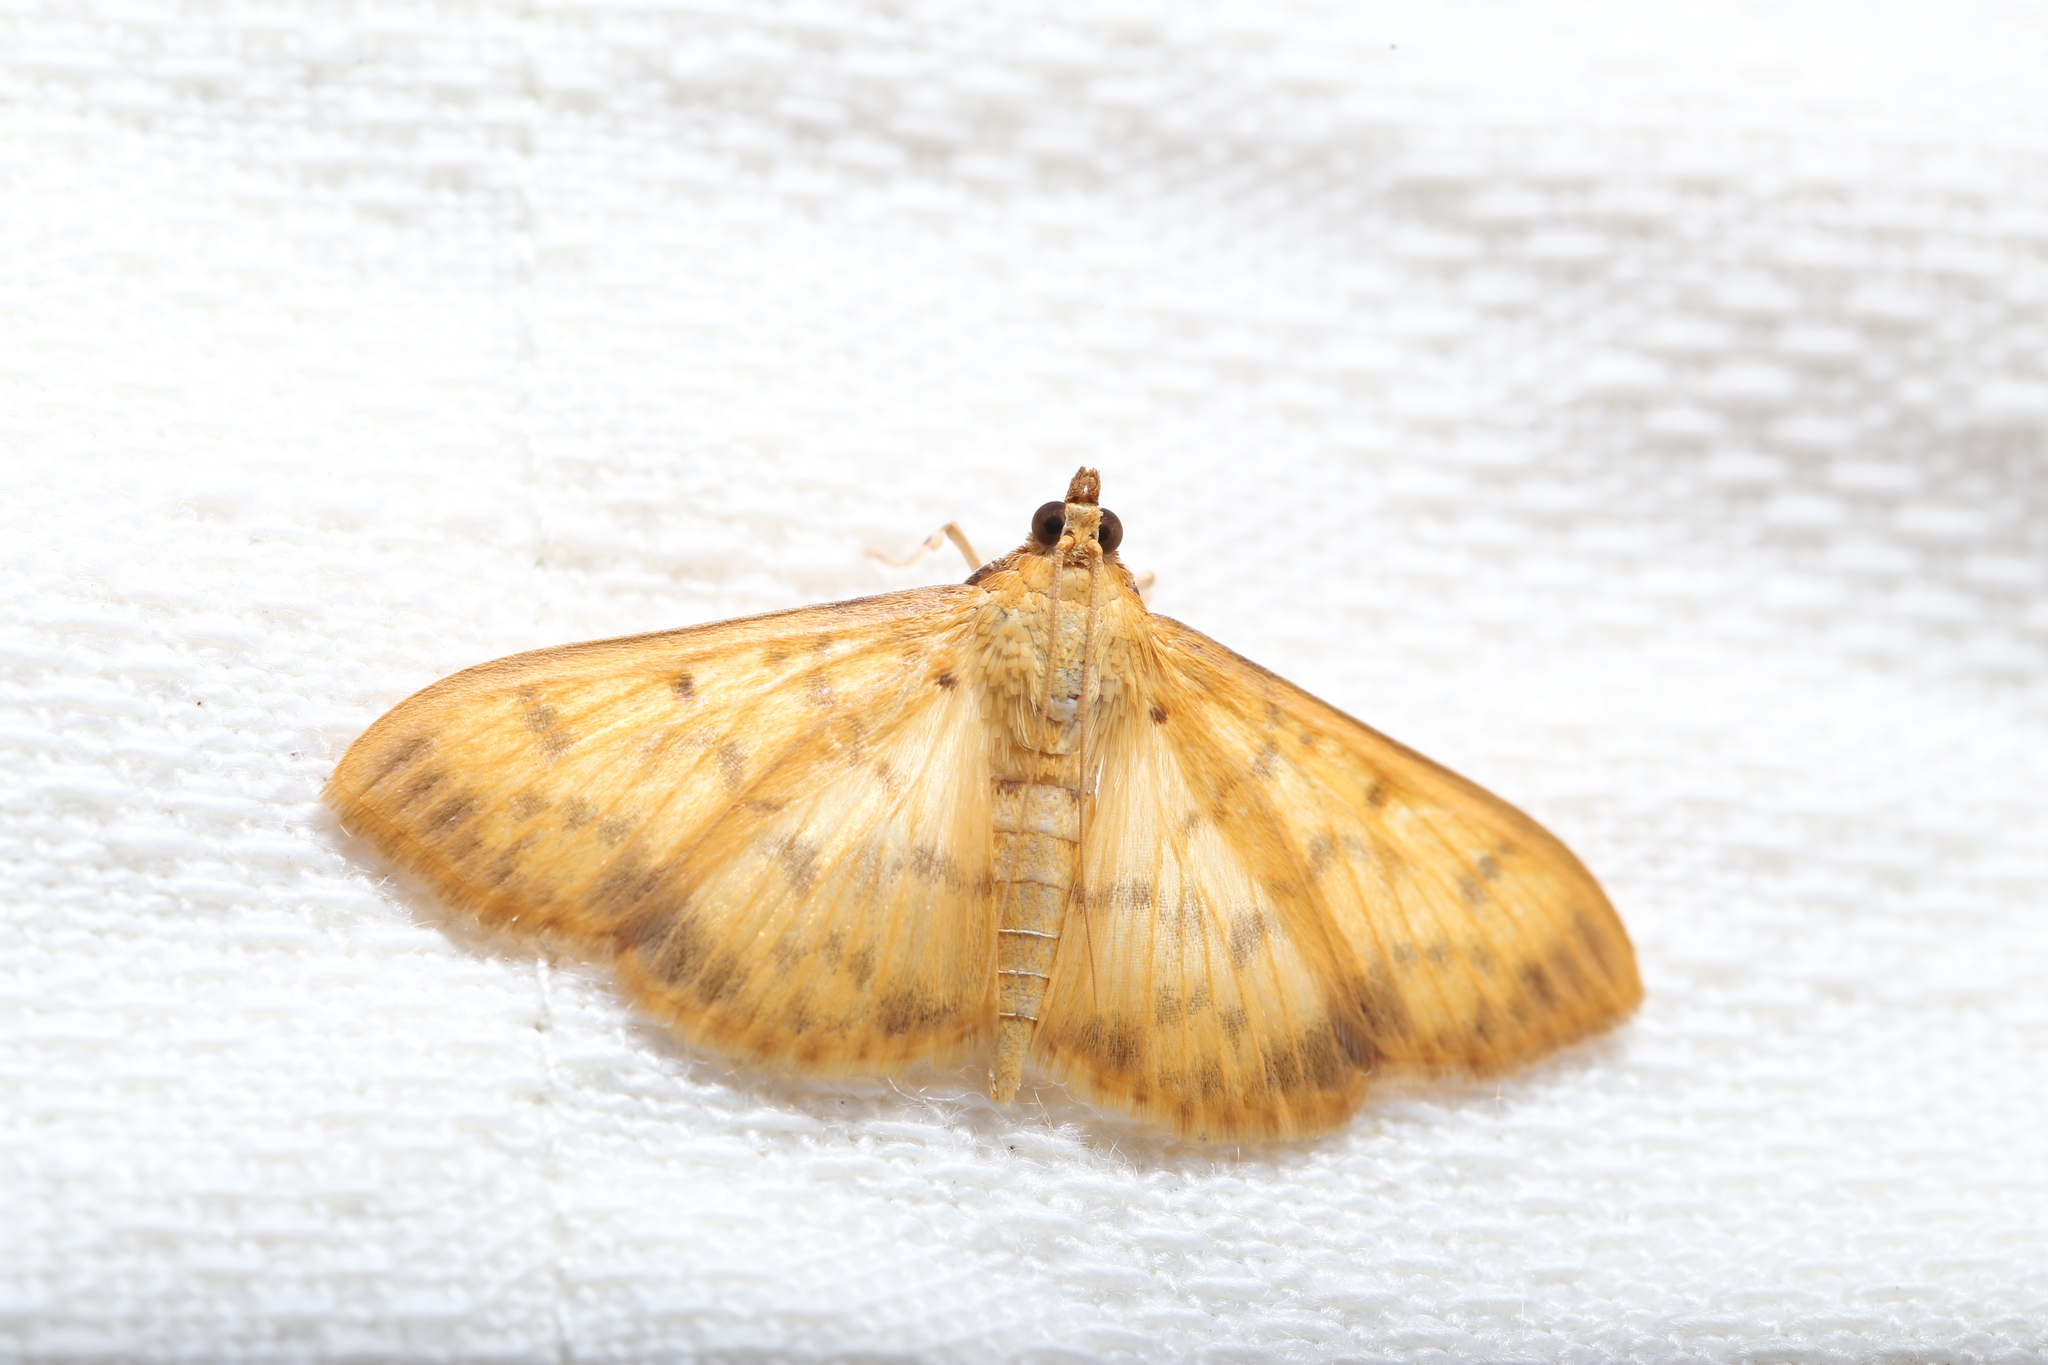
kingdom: Animalia
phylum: Arthropoda
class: Insecta
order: Lepidoptera
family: Crambidae
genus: Pleuroptya
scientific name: Pleuroptya balteata
